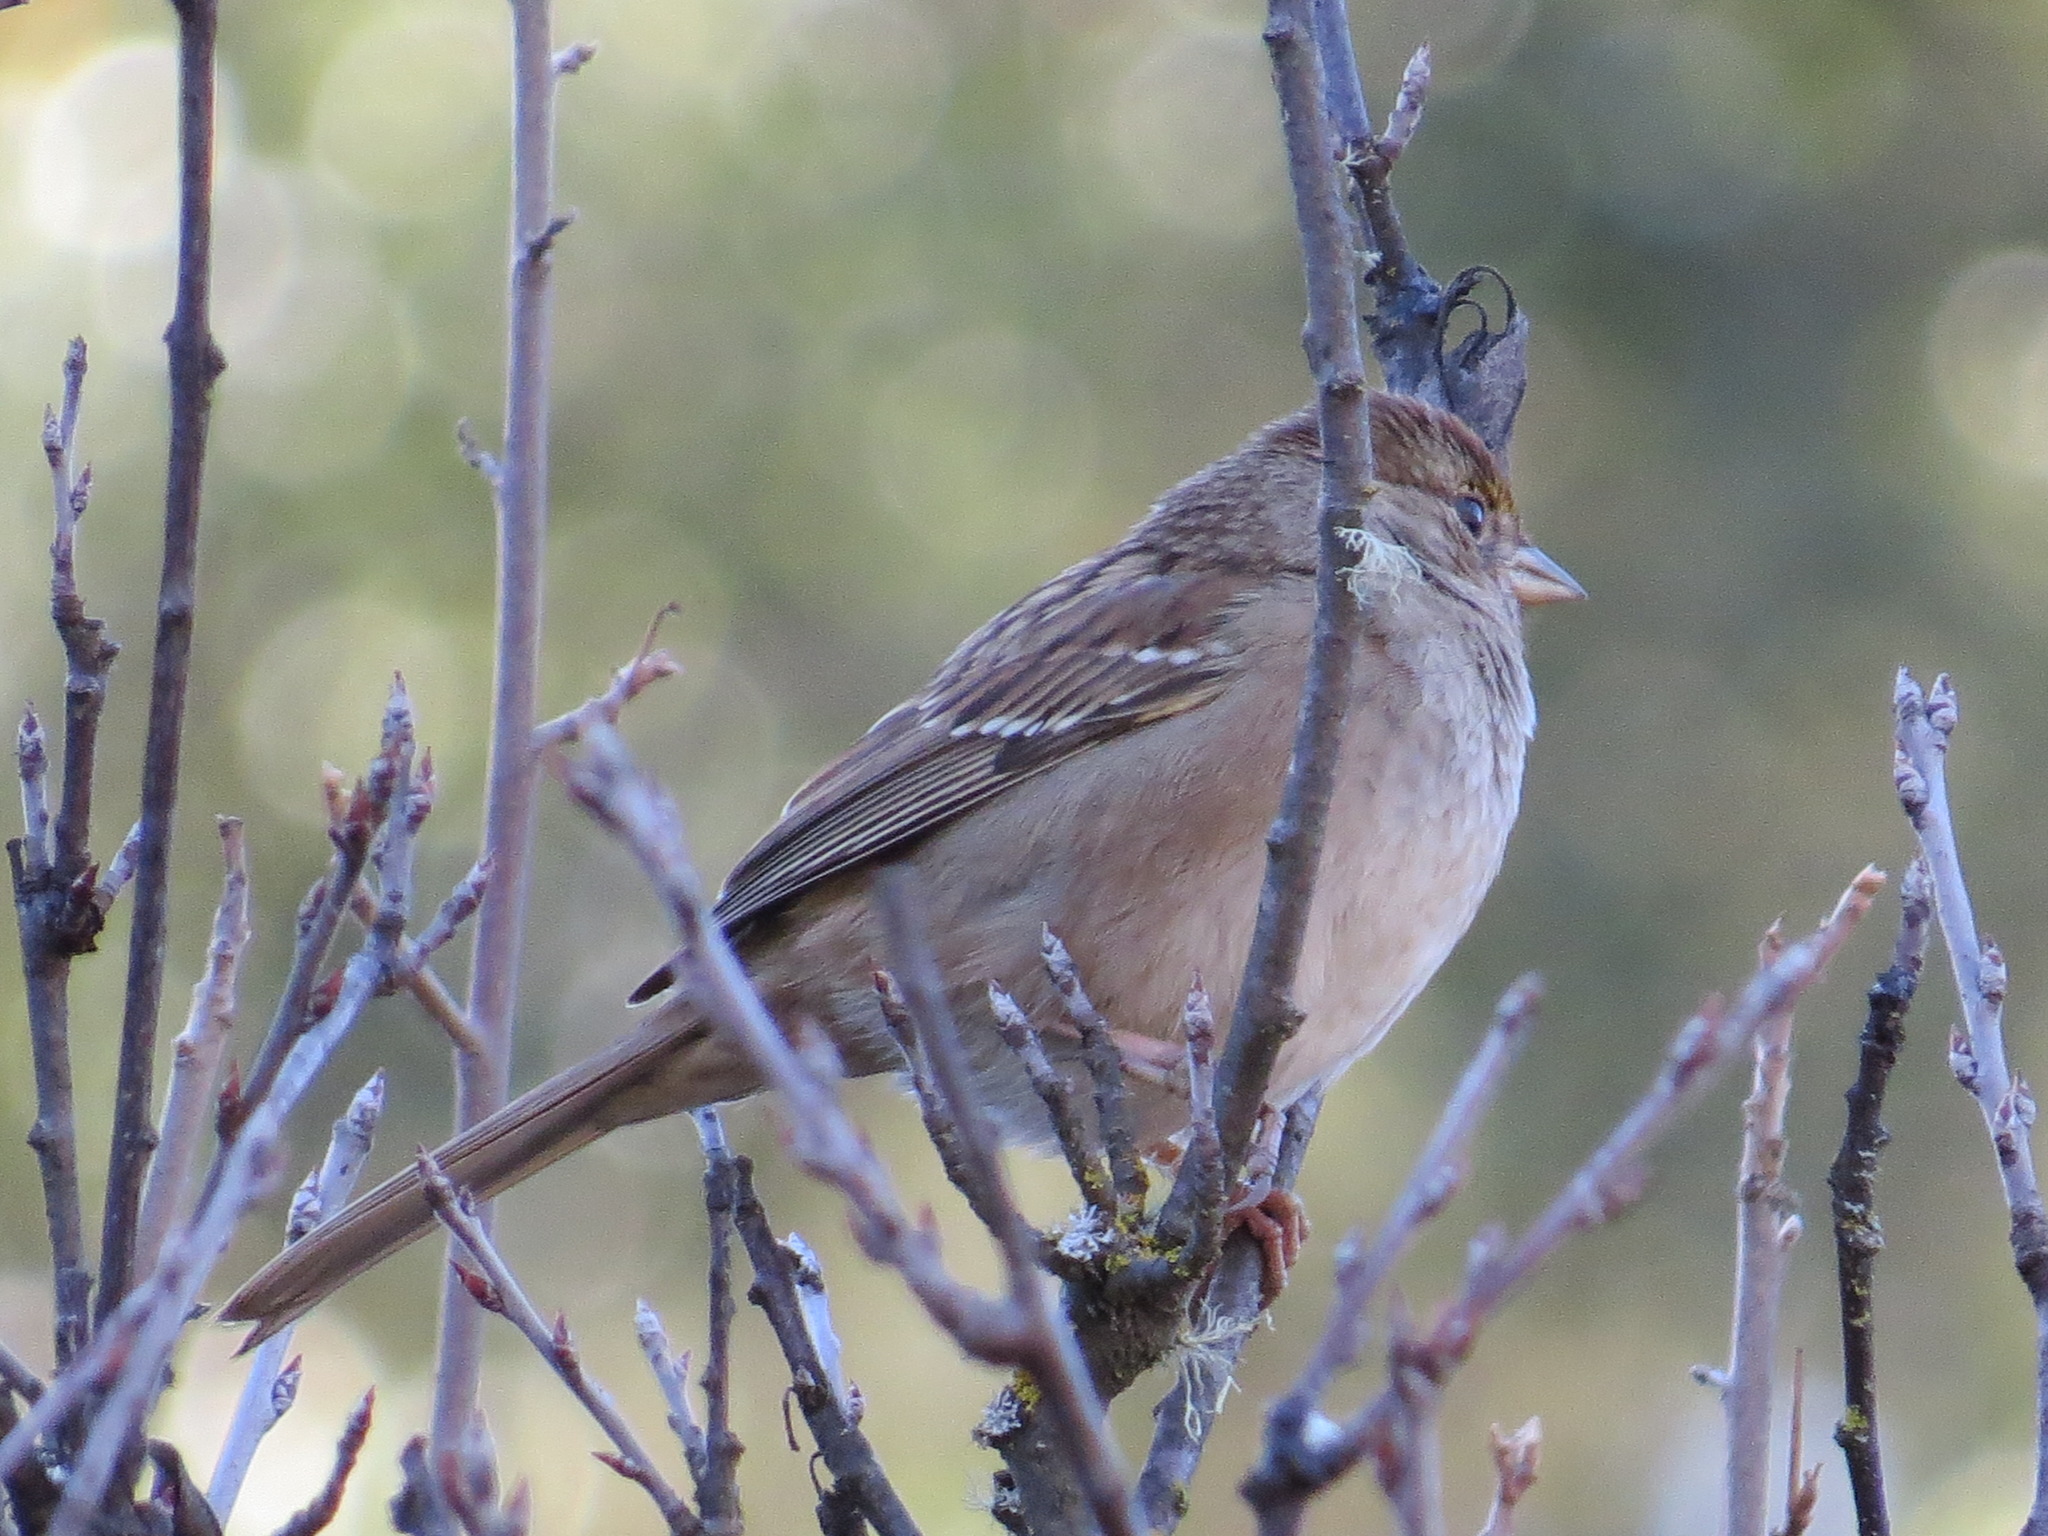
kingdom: Animalia
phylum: Chordata
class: Aves
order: Passeriformes
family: Passerellidae
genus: Zonotrichia
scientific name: Zonotrichia atricapilla
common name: Golden-crowned sparrow
